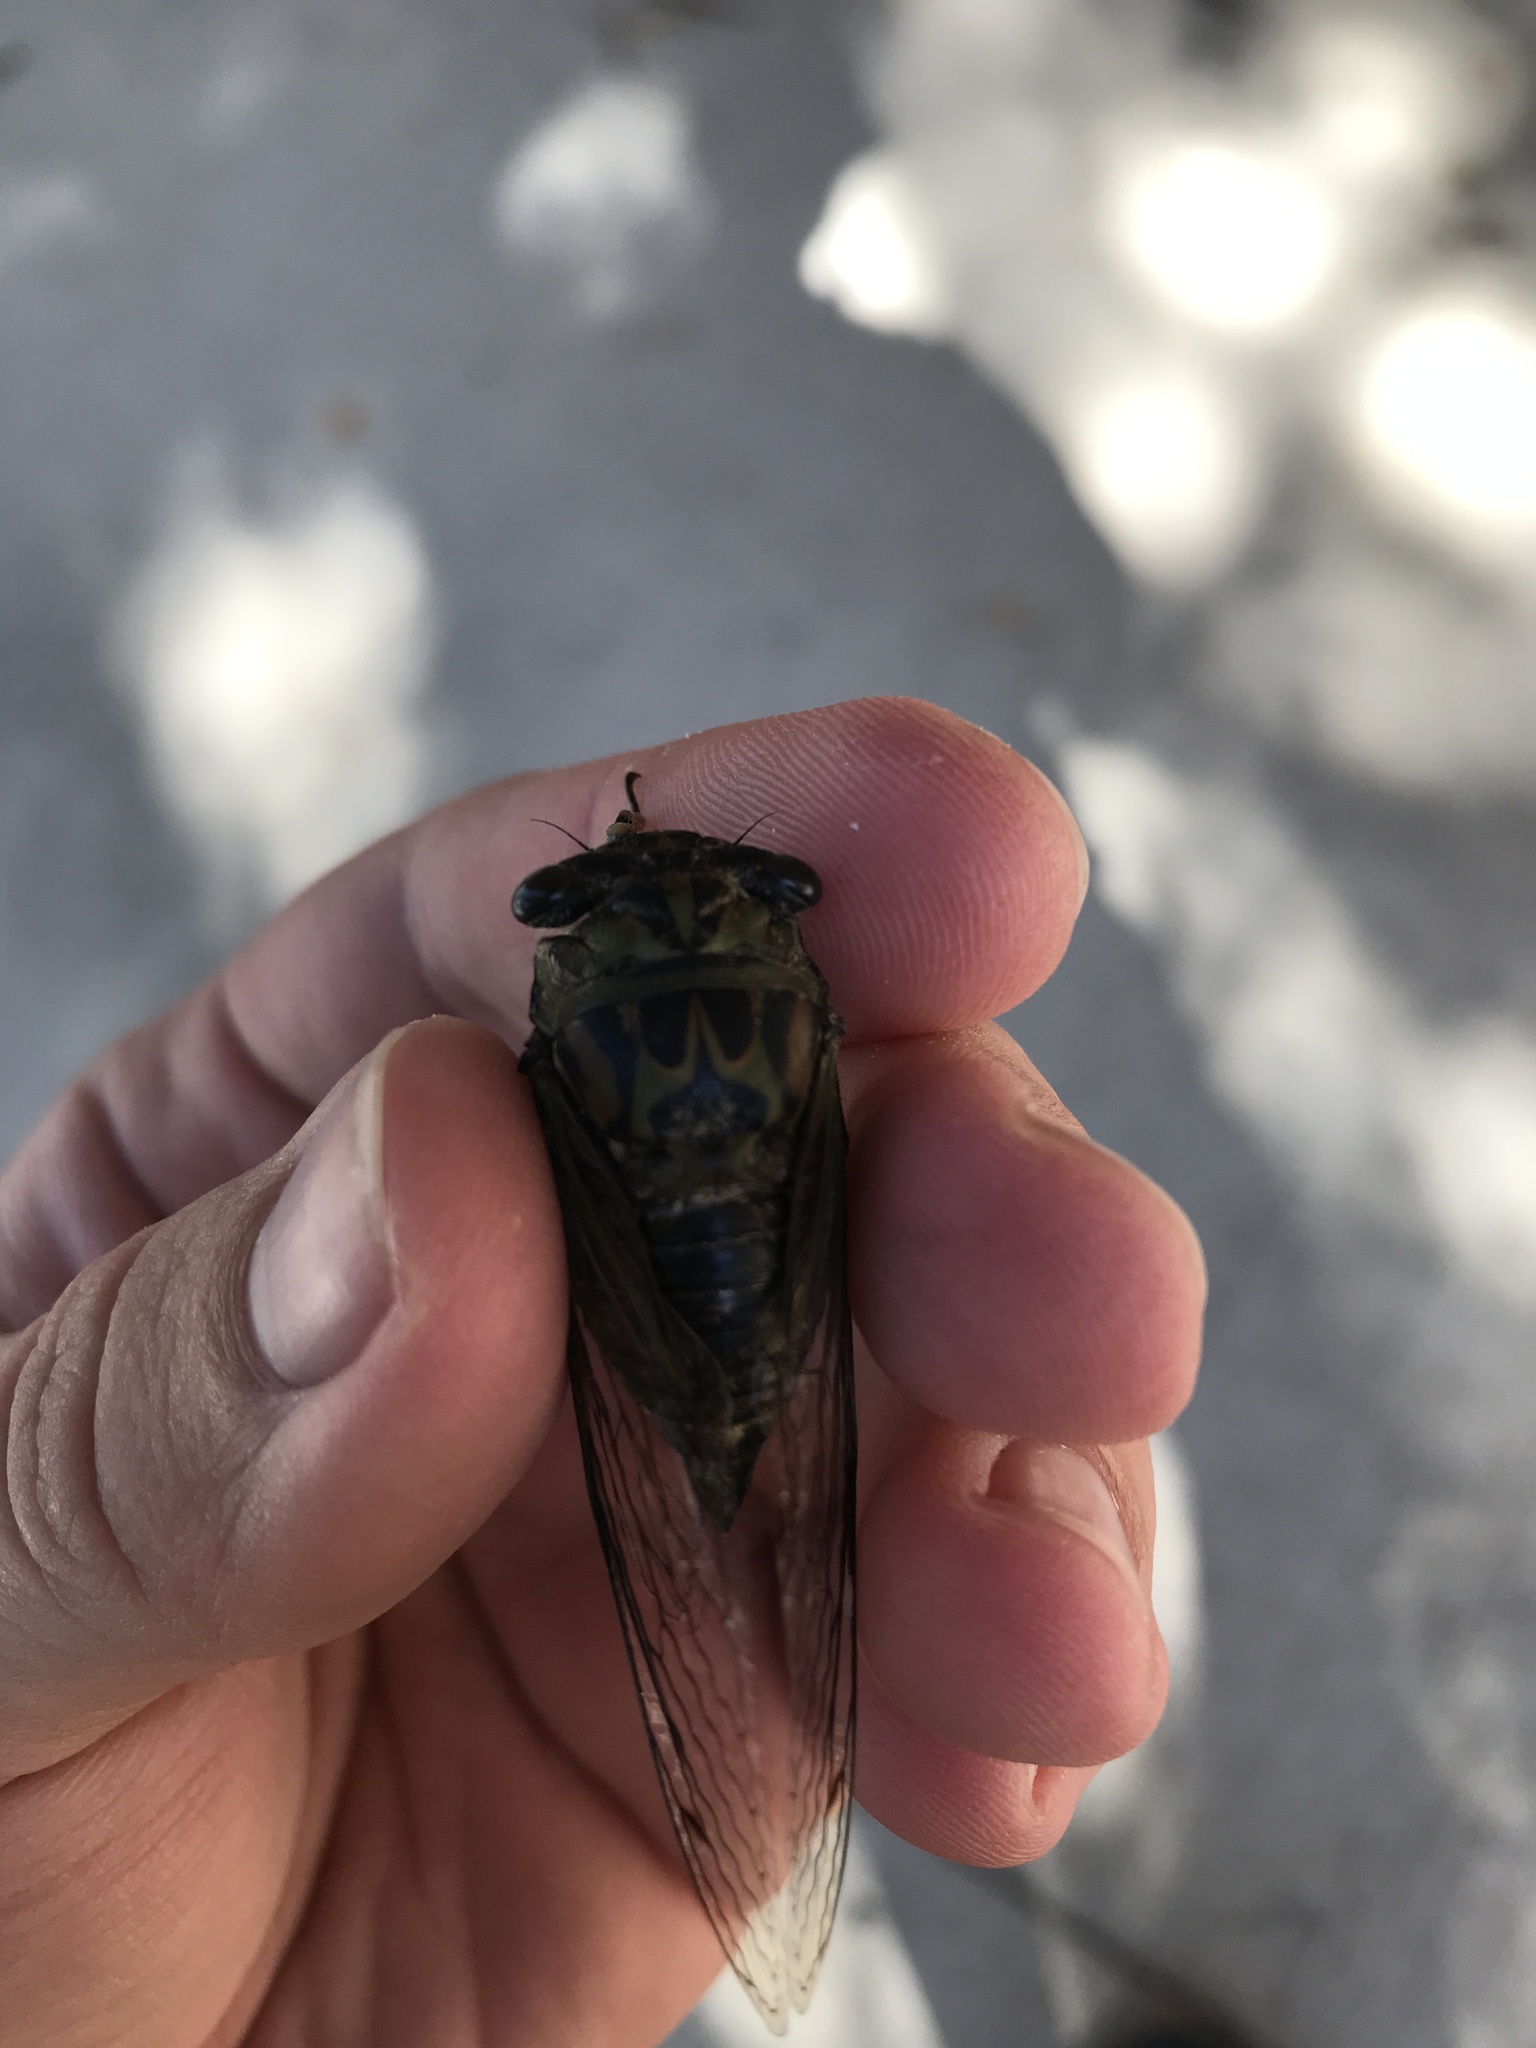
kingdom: Animalia
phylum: Arthropoda
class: Insecta
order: Hemiptera
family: Cicadidae
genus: Neotibicen
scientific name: Neotibicen canicularis
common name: God-day cicada
